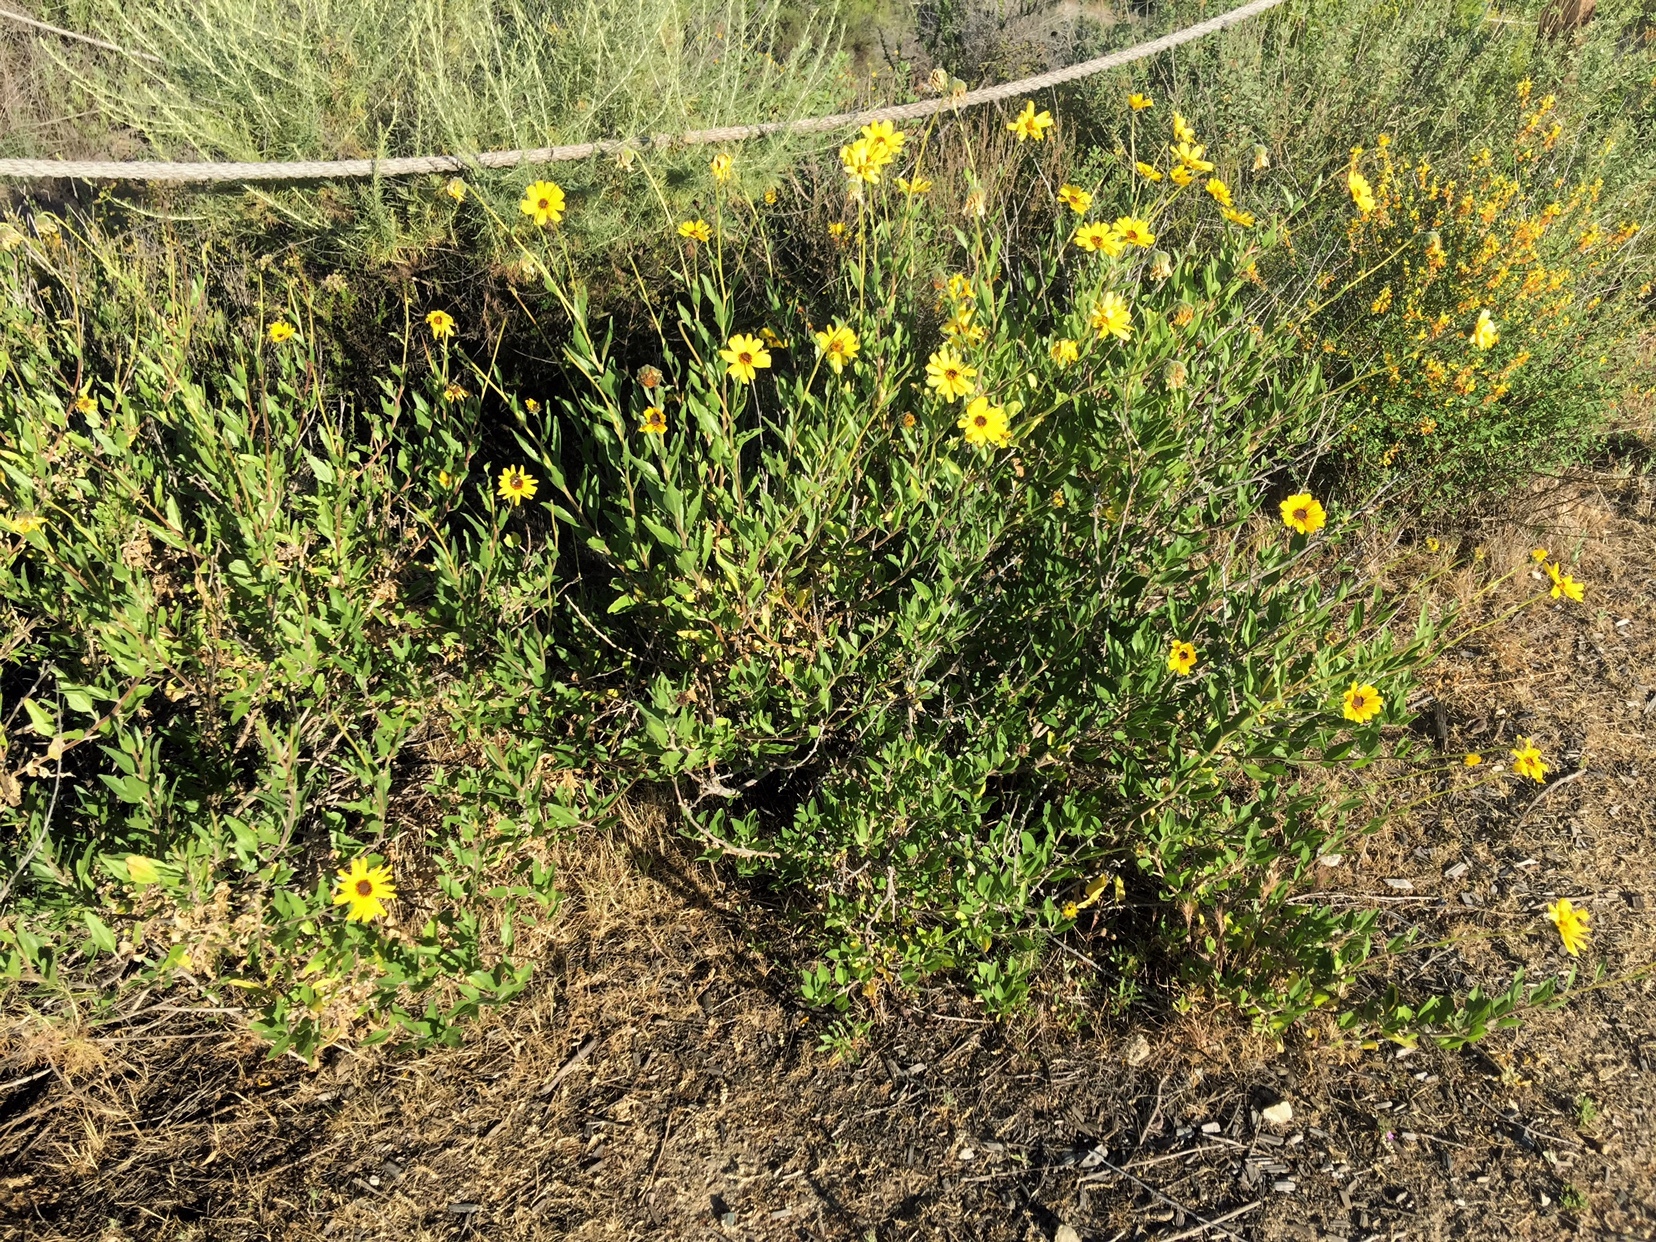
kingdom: Plantae
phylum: Tracheophyta
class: Magnoliopsida
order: Asterales
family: Asteraceae
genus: Encelia
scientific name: Encelia californica
